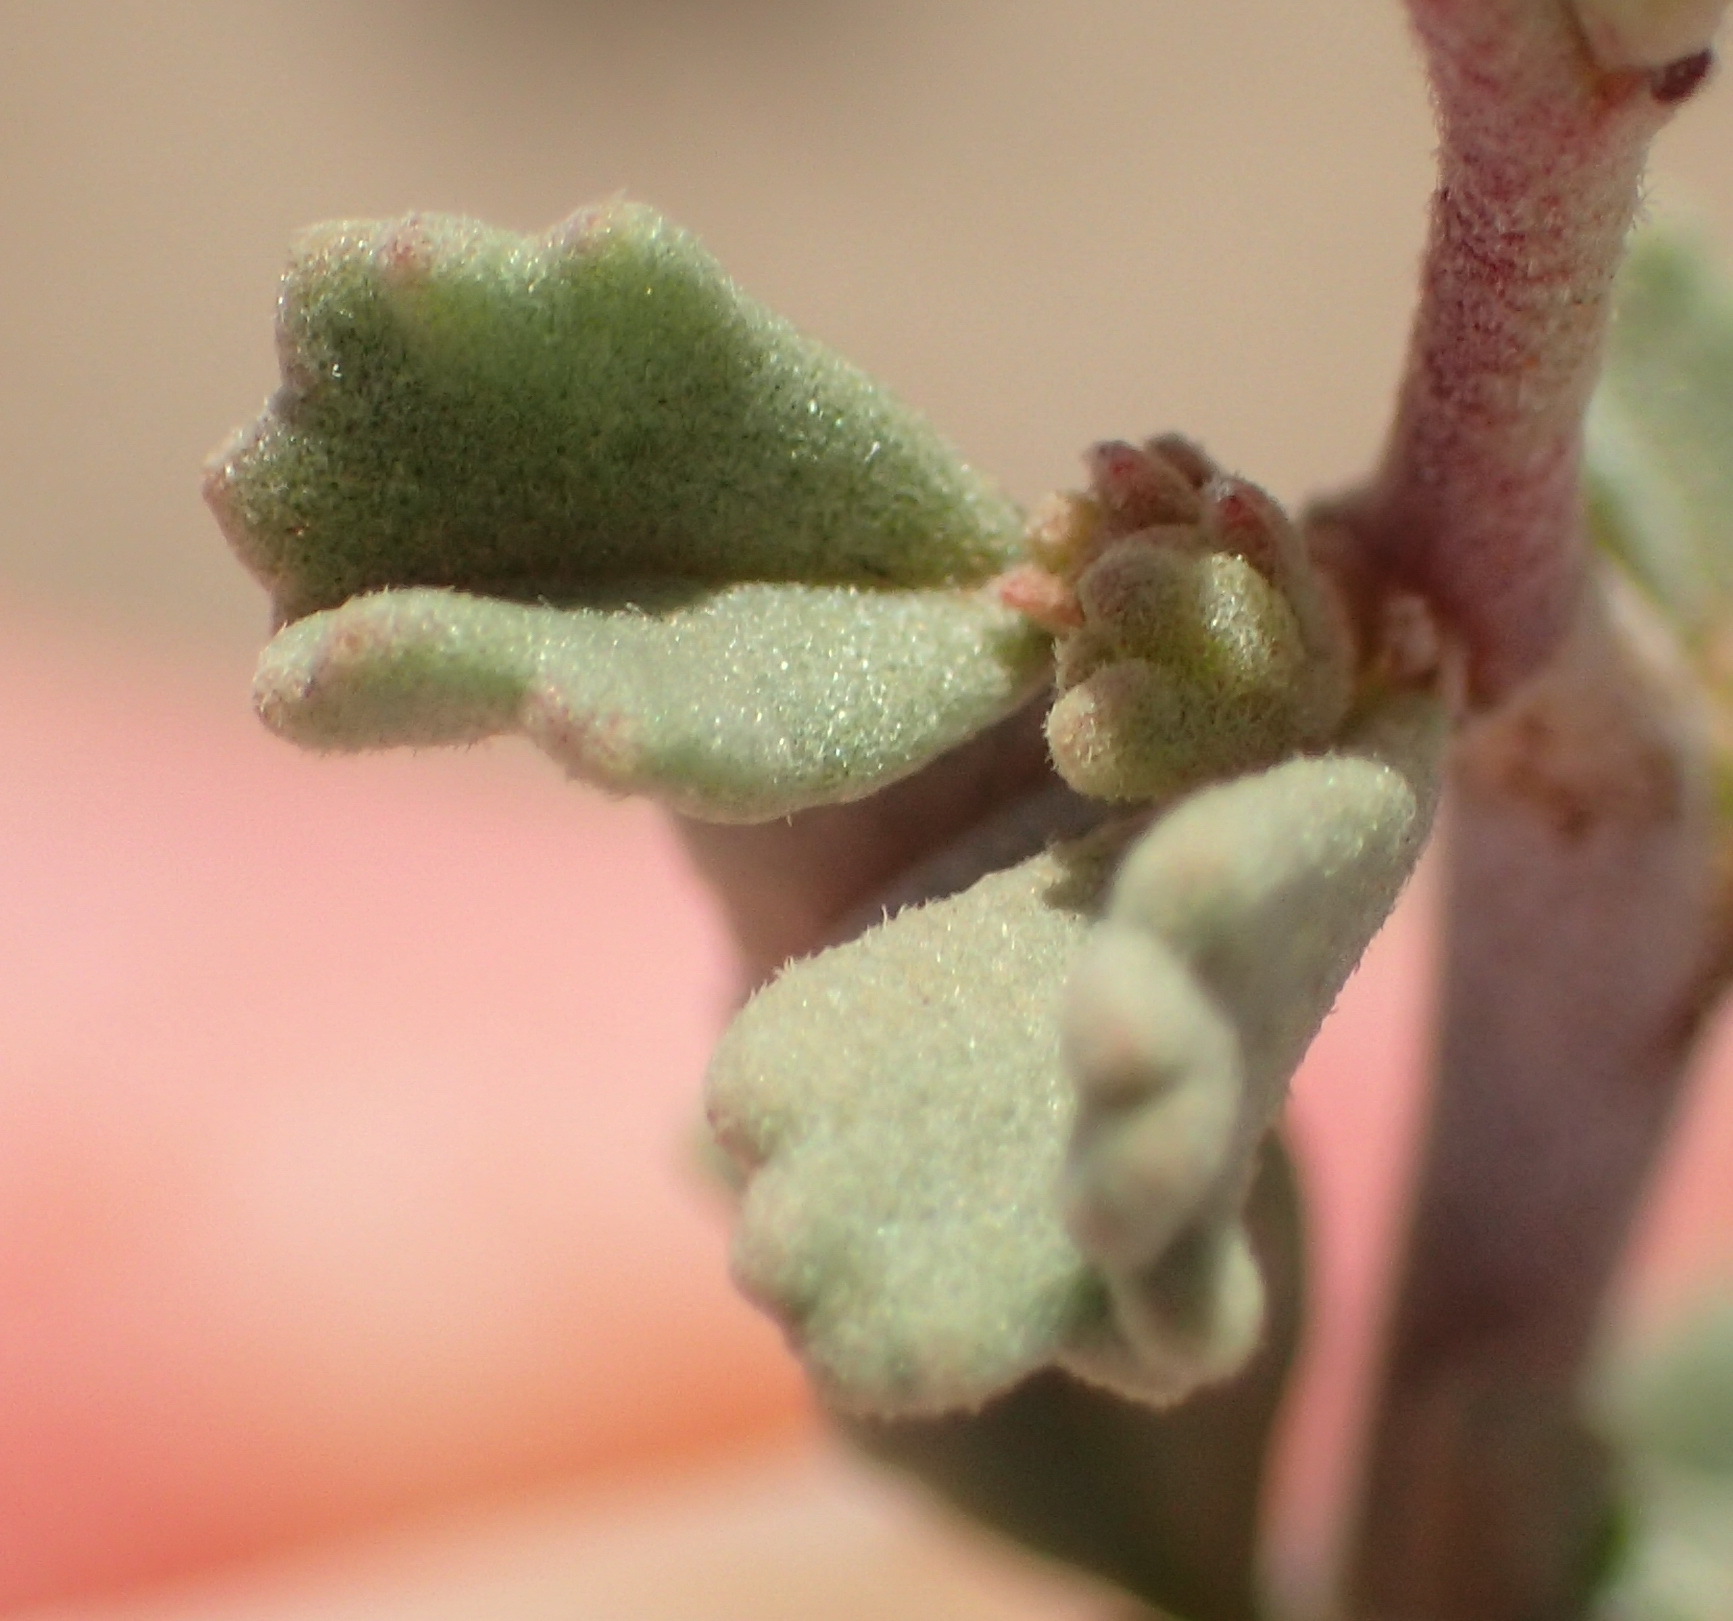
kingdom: Plantae
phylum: Tracheophyta
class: Magnoliopsida
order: Malvales
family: Malvaceae
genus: Hermannia
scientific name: Hermannia pfeilii
